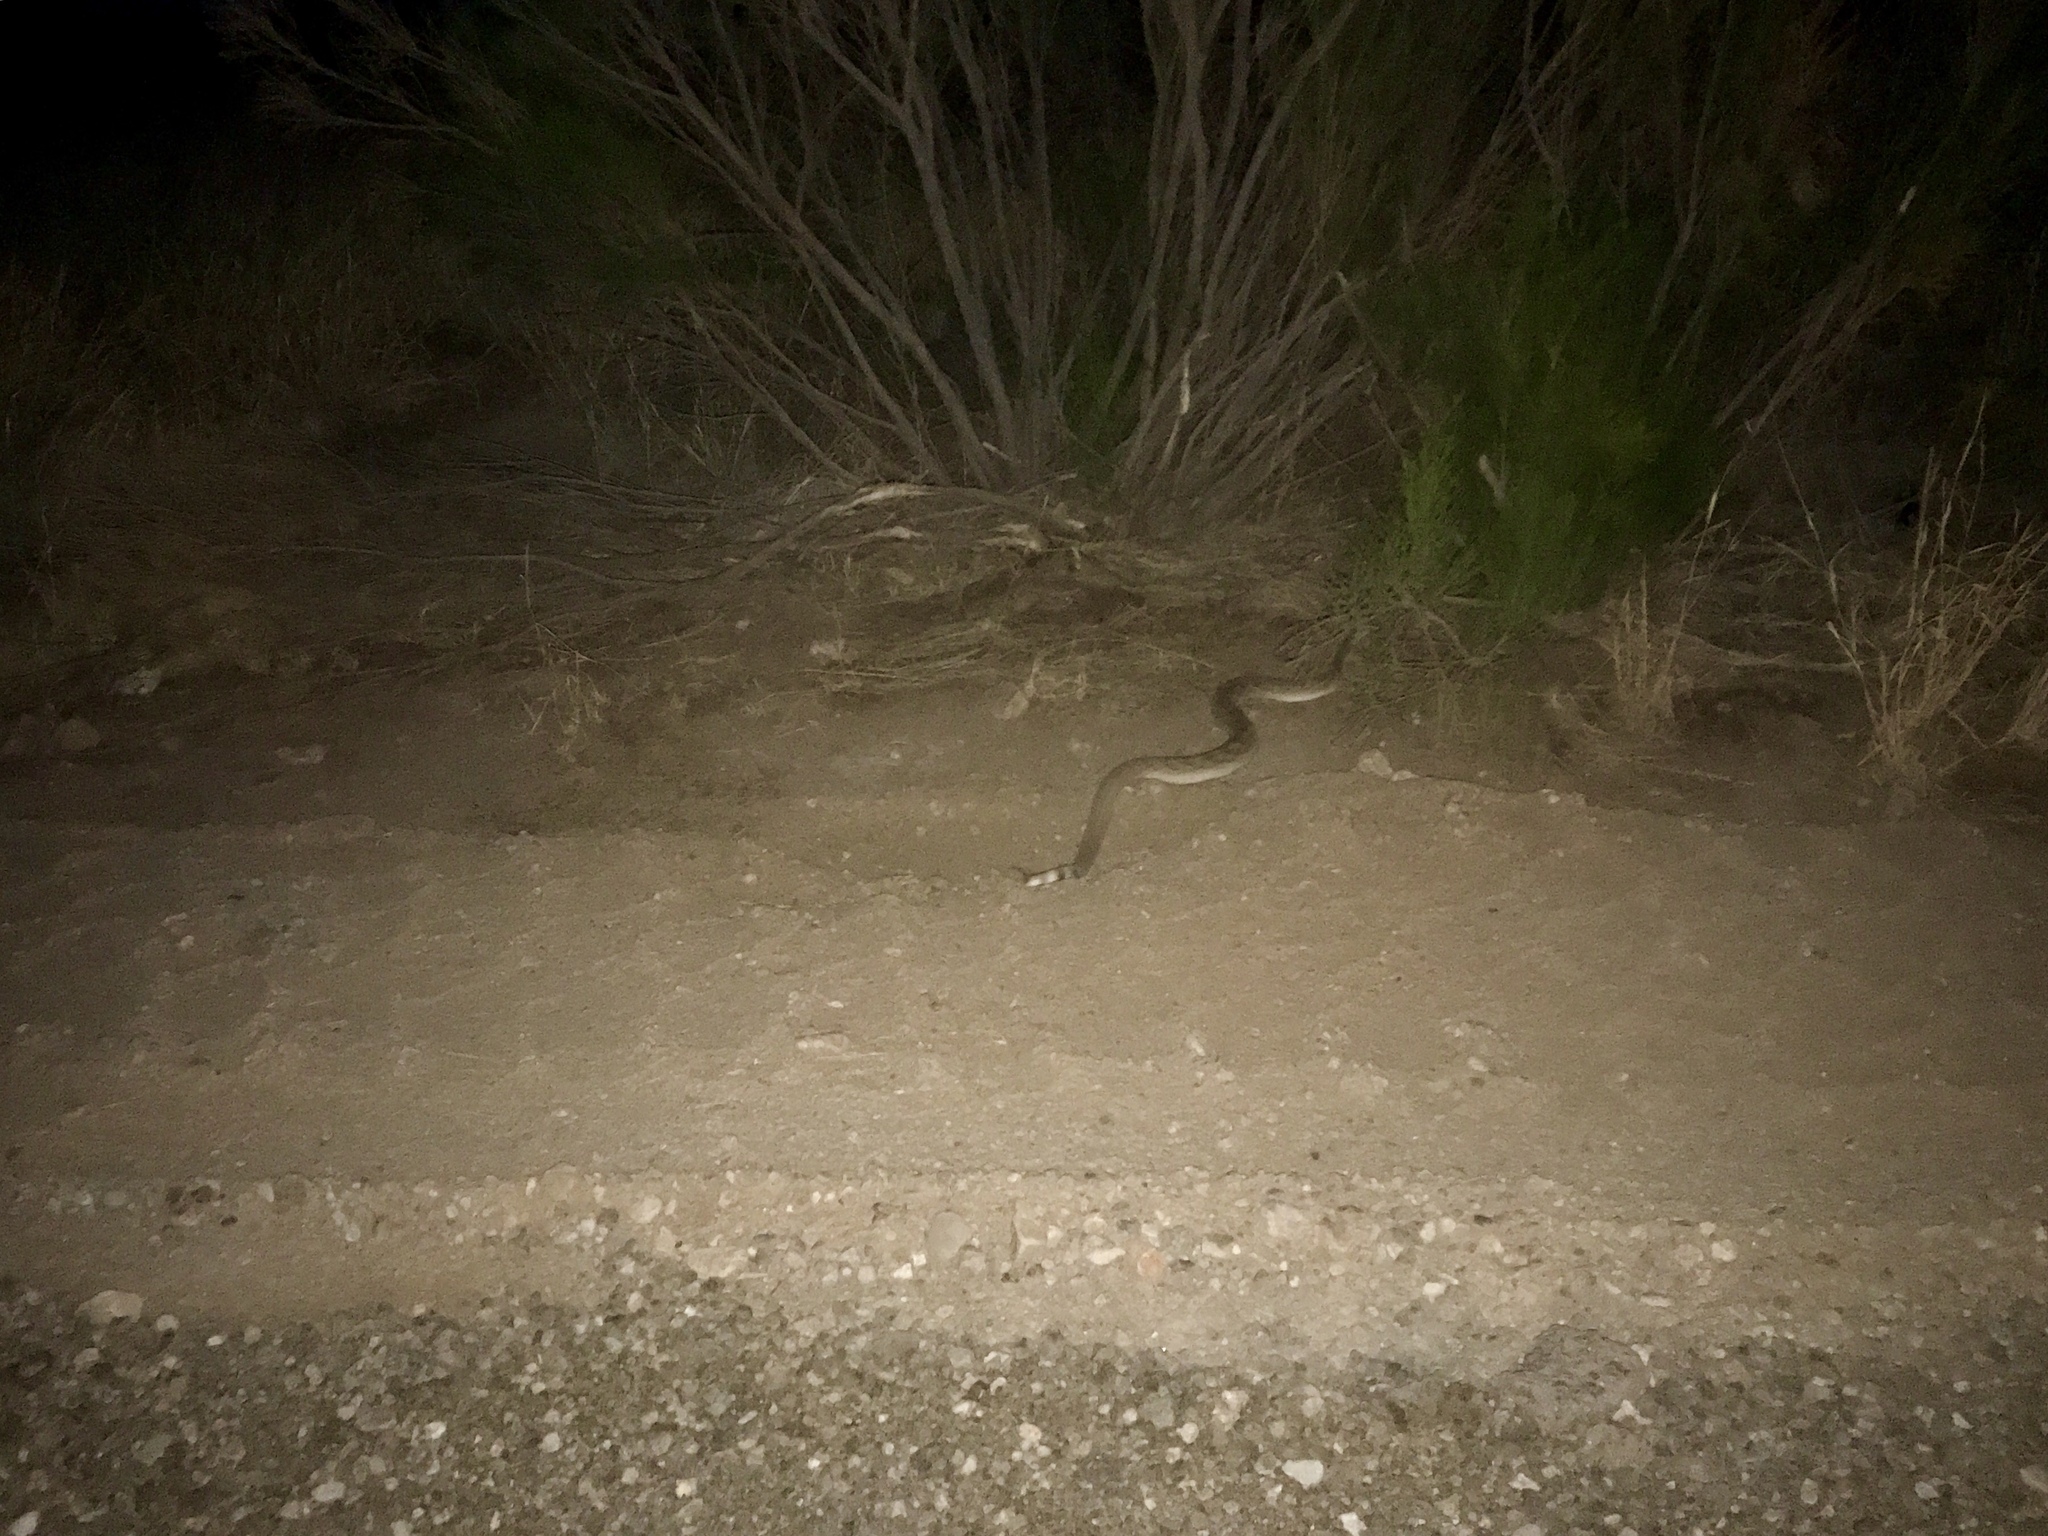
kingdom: Animalia
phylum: Chordata
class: Squamata
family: Viperidae
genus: Crotalus
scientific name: Crotalus atrox
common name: Western diamond-backed rattlesnake
